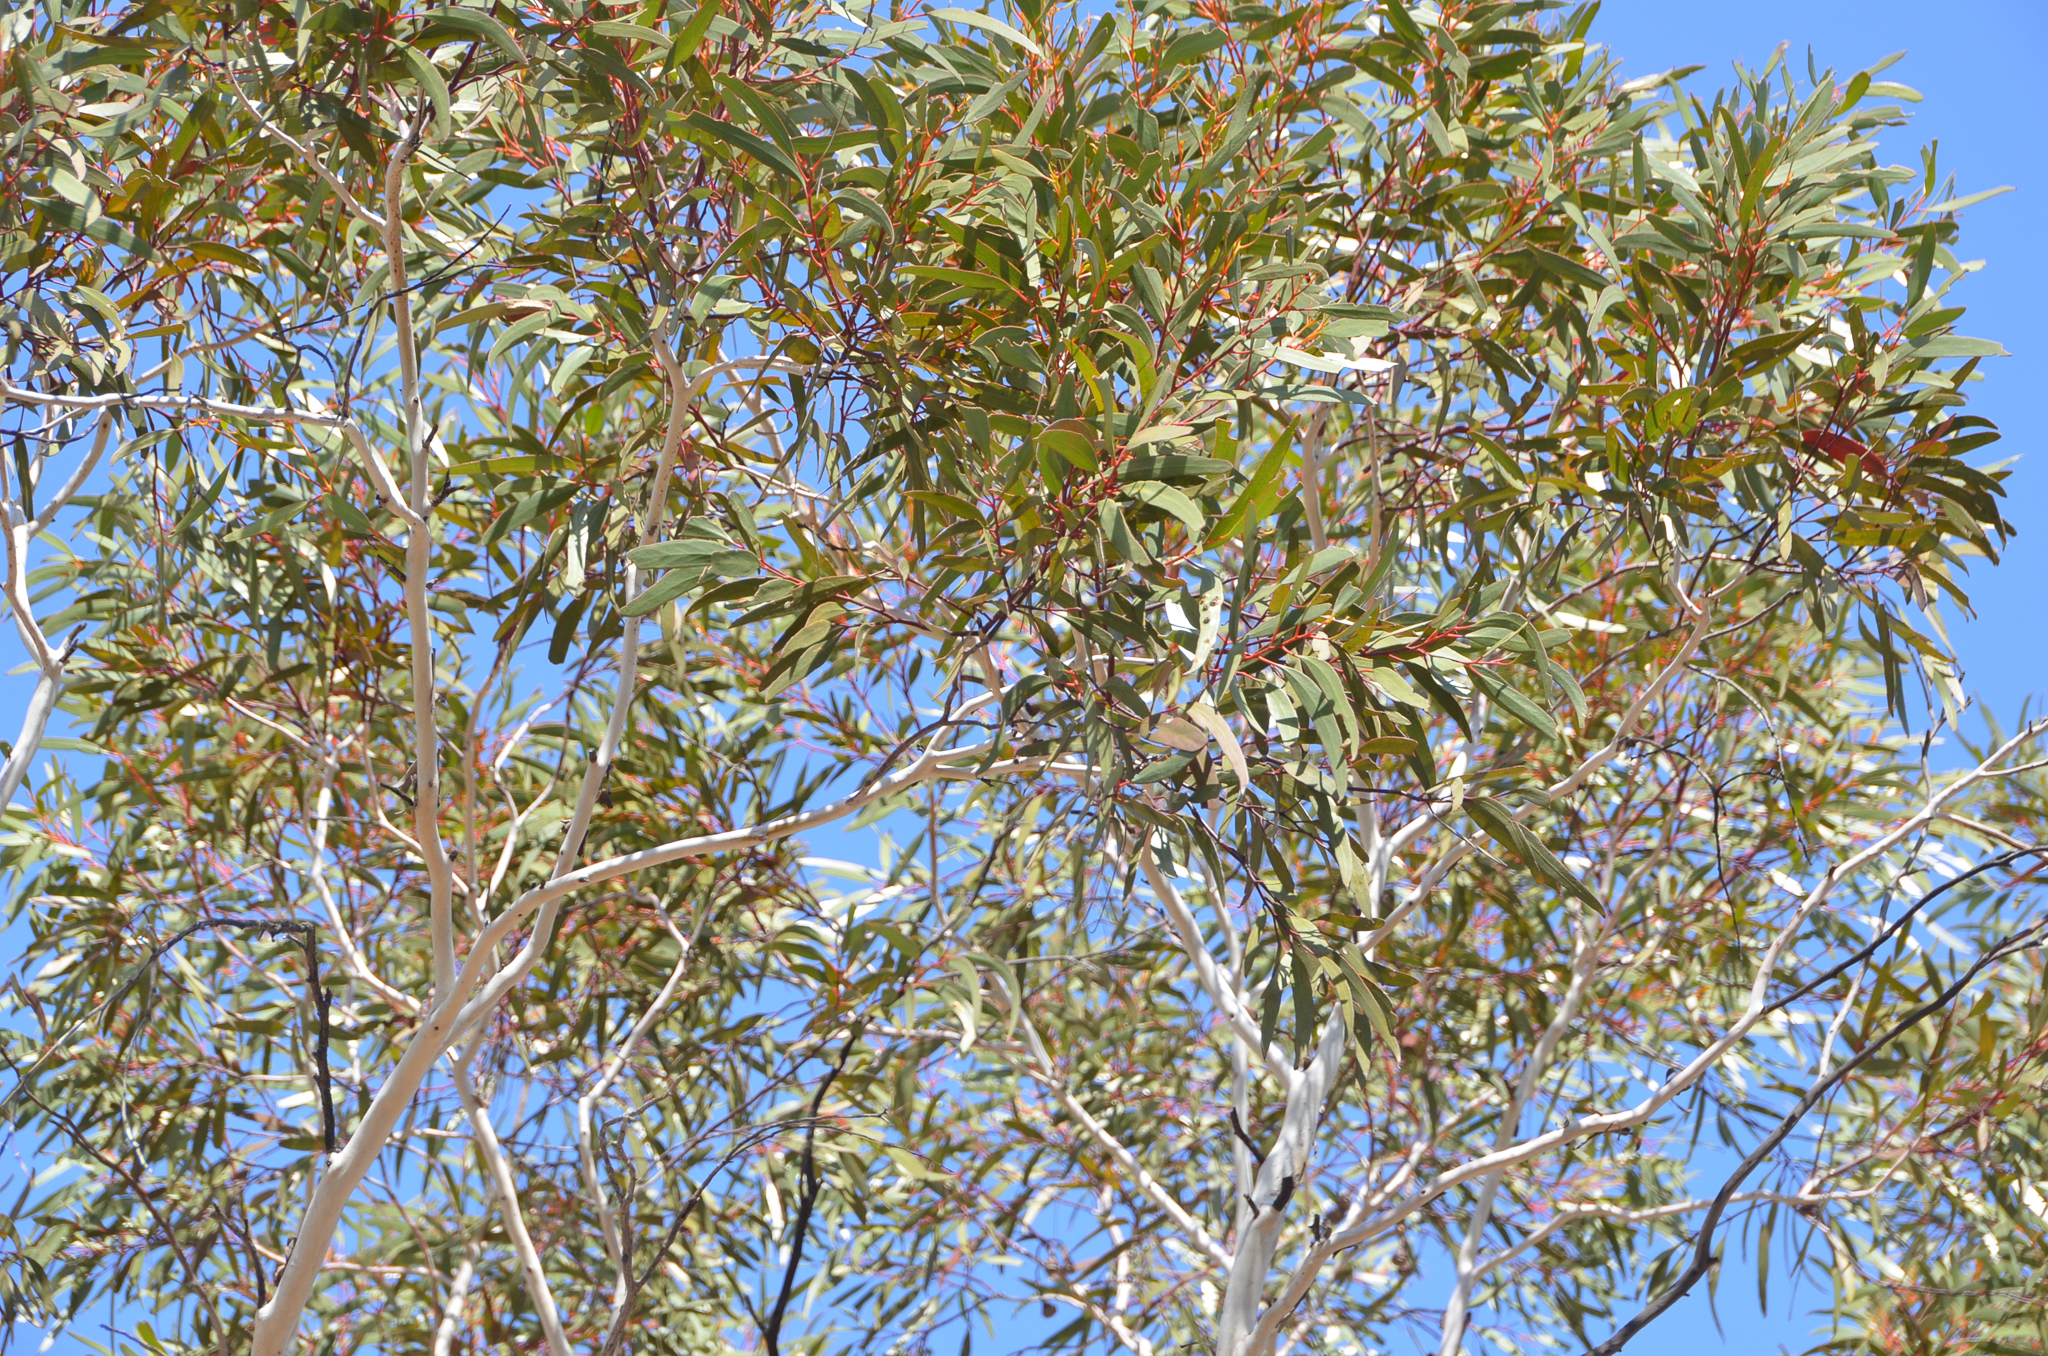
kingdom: Plantae
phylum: Tracheophyta
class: Magnoliopsida
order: Myrtales
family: Myrtaceae
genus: Eucalyptus
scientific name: Eucalyptus armillata
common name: Flanged mallee
